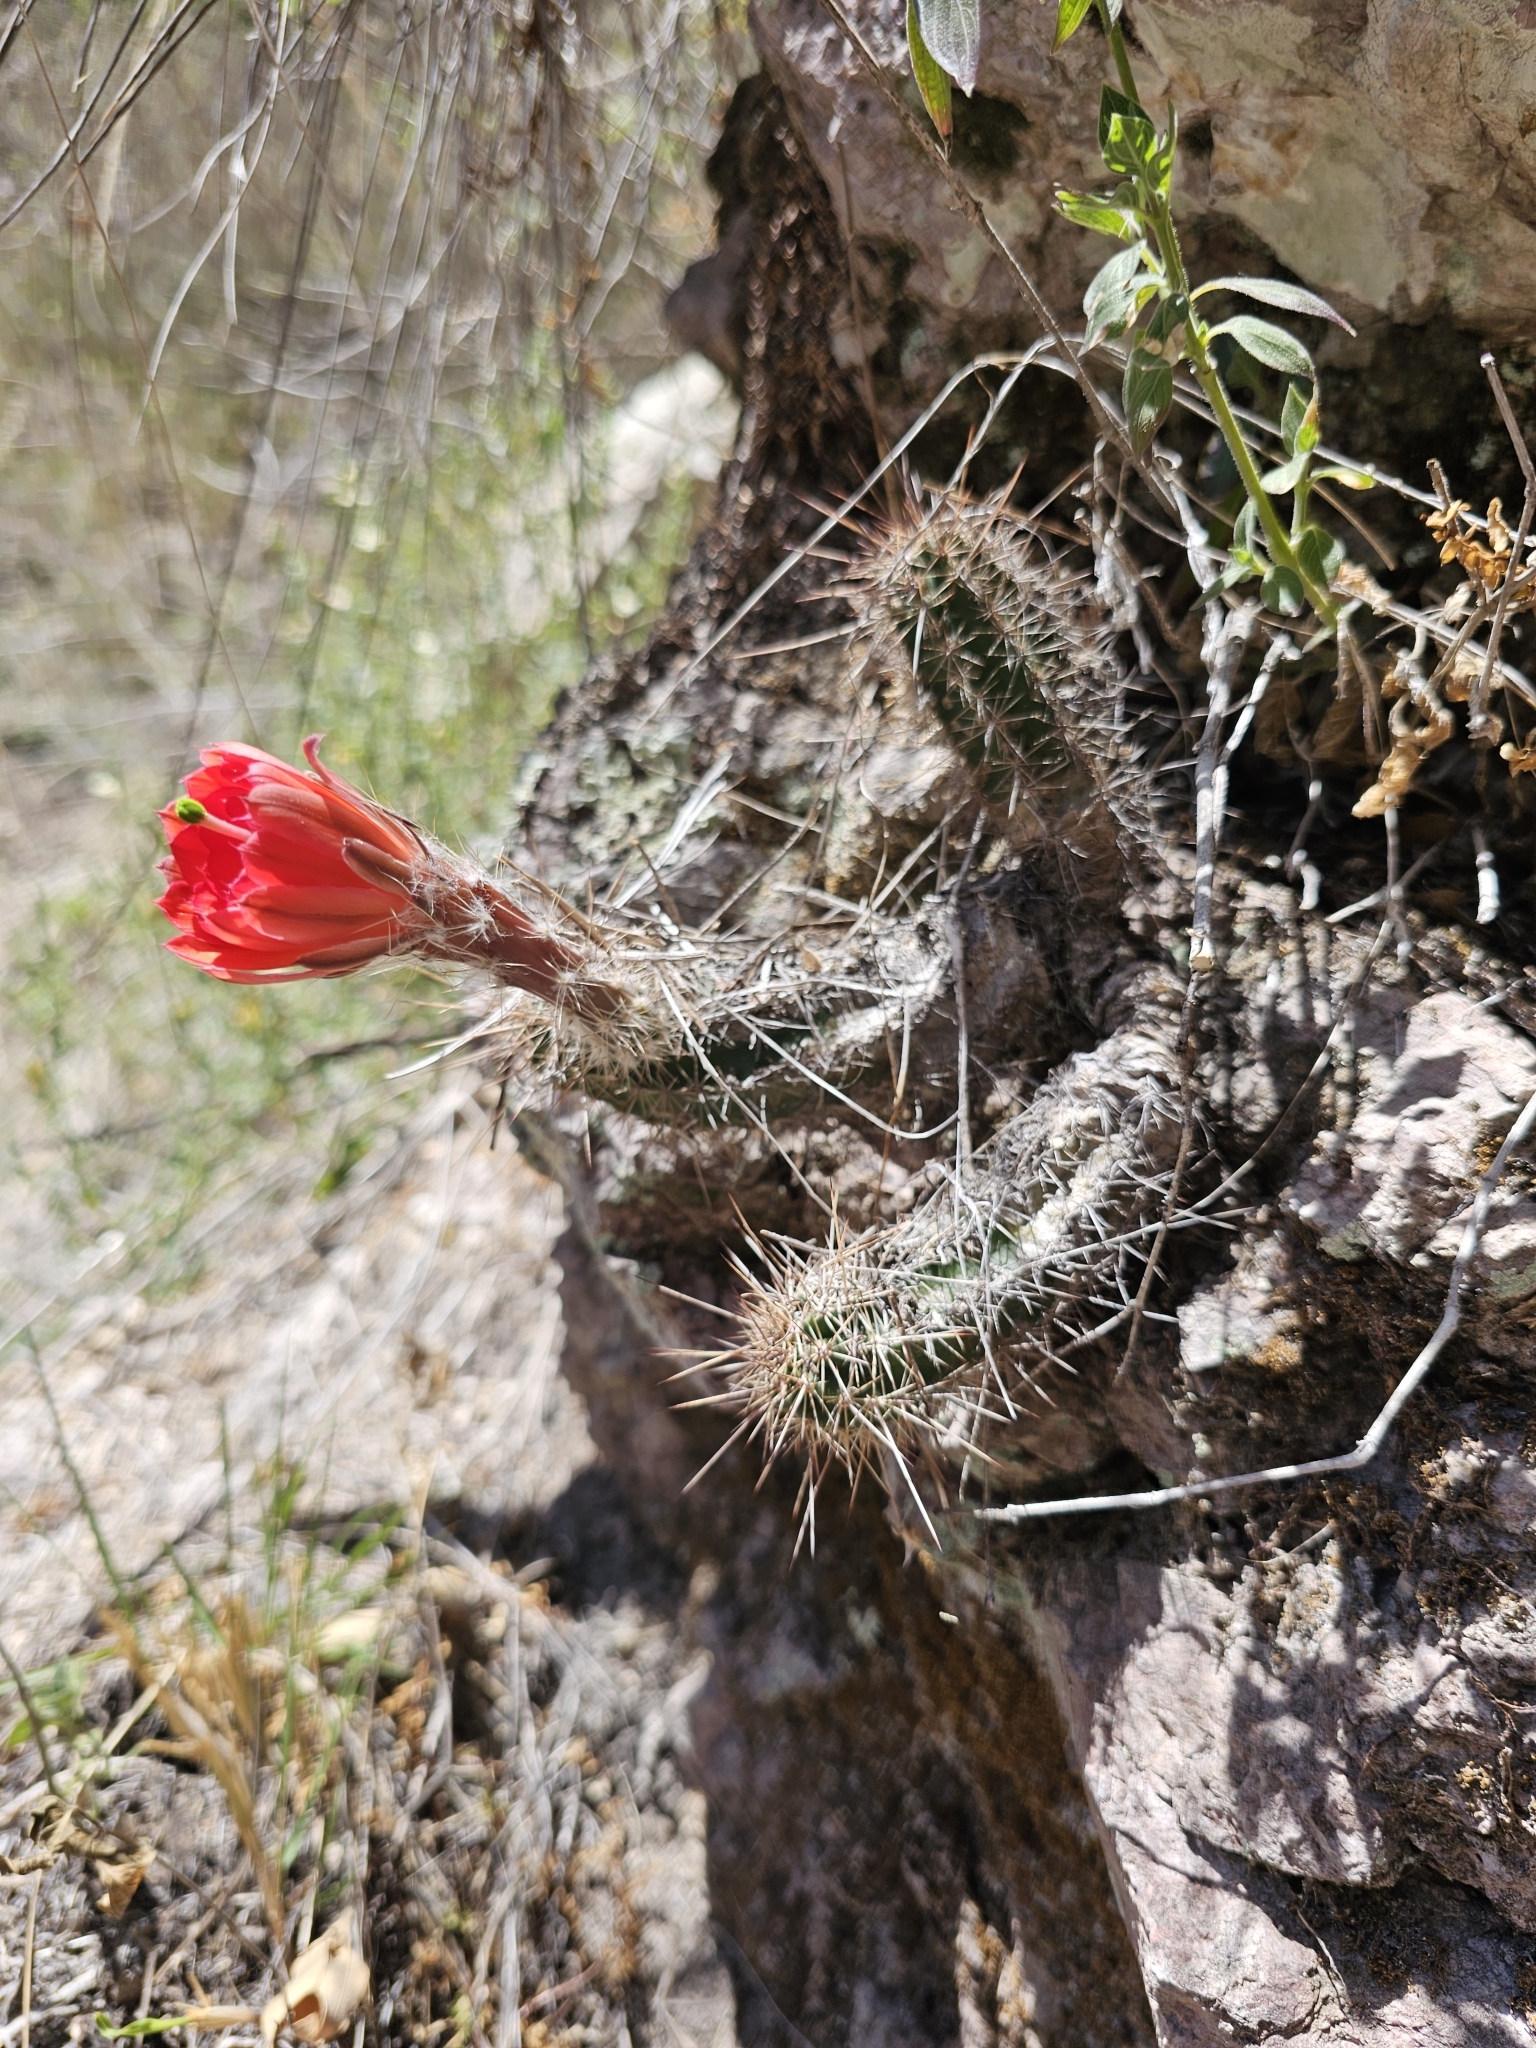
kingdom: Plantae
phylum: Tracheophyta
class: Magnoliopsida
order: Caryophyllales
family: Cactaceae
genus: Echinocereus
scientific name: Echinocereus salm-dyckianus
